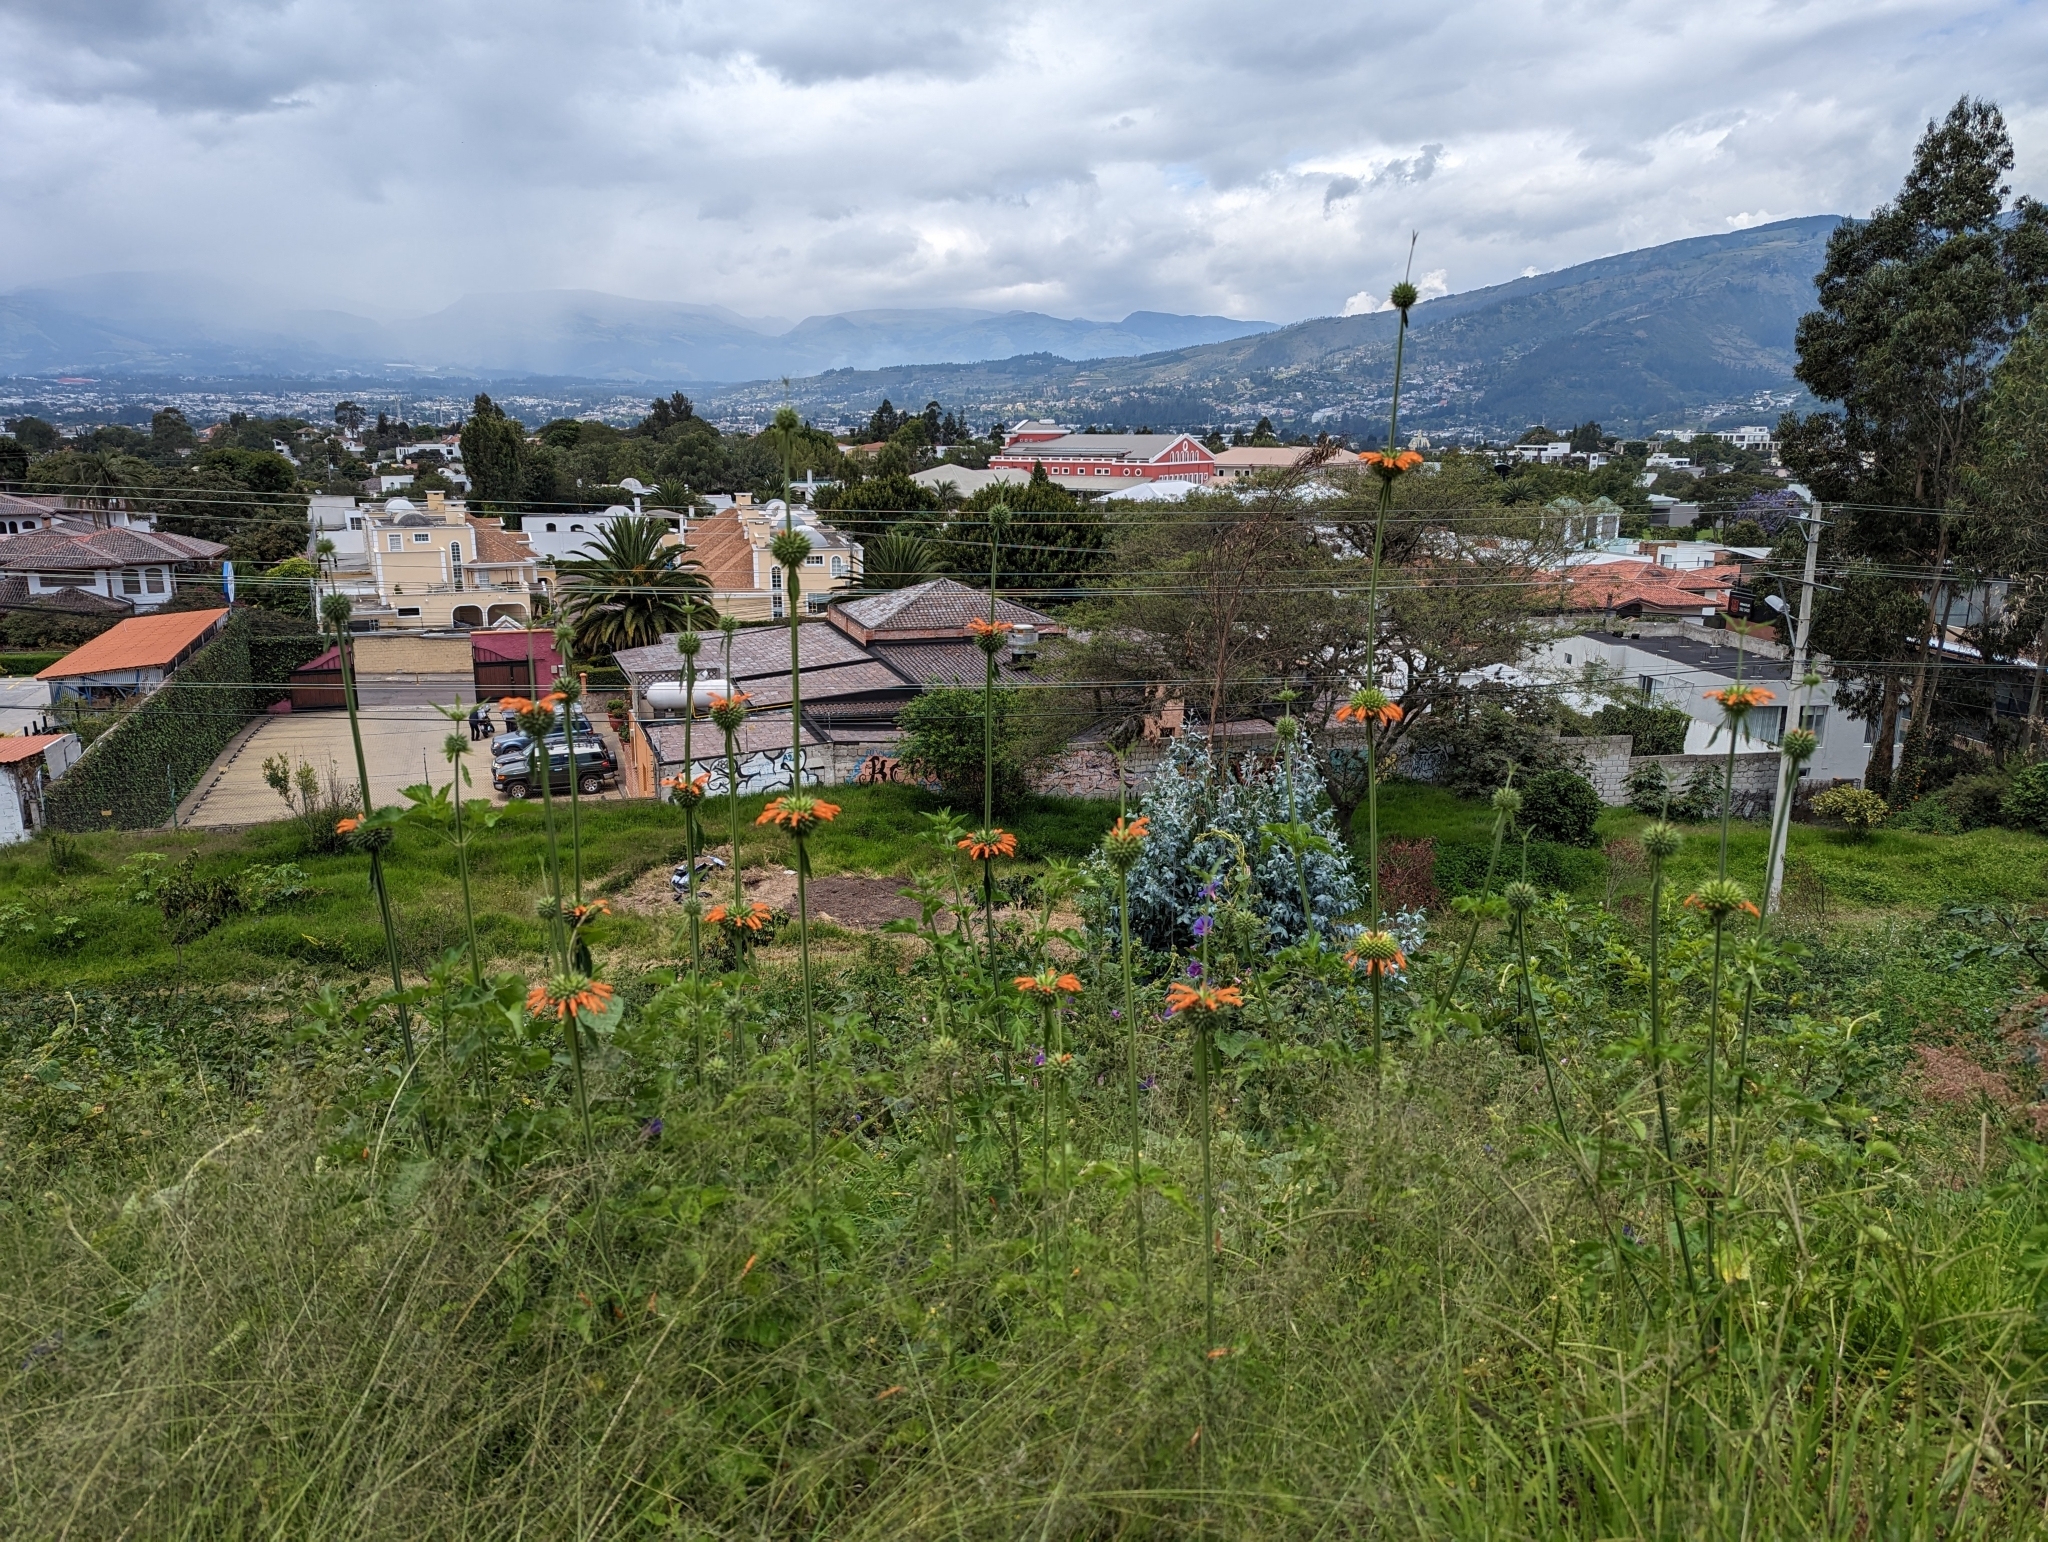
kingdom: Plantae
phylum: Tracheophyta
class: Magnoliopsida
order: Lamiales
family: Lamiaceae
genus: Leonotis
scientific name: Leonotis nepetifolia
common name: Christmas candlestick
